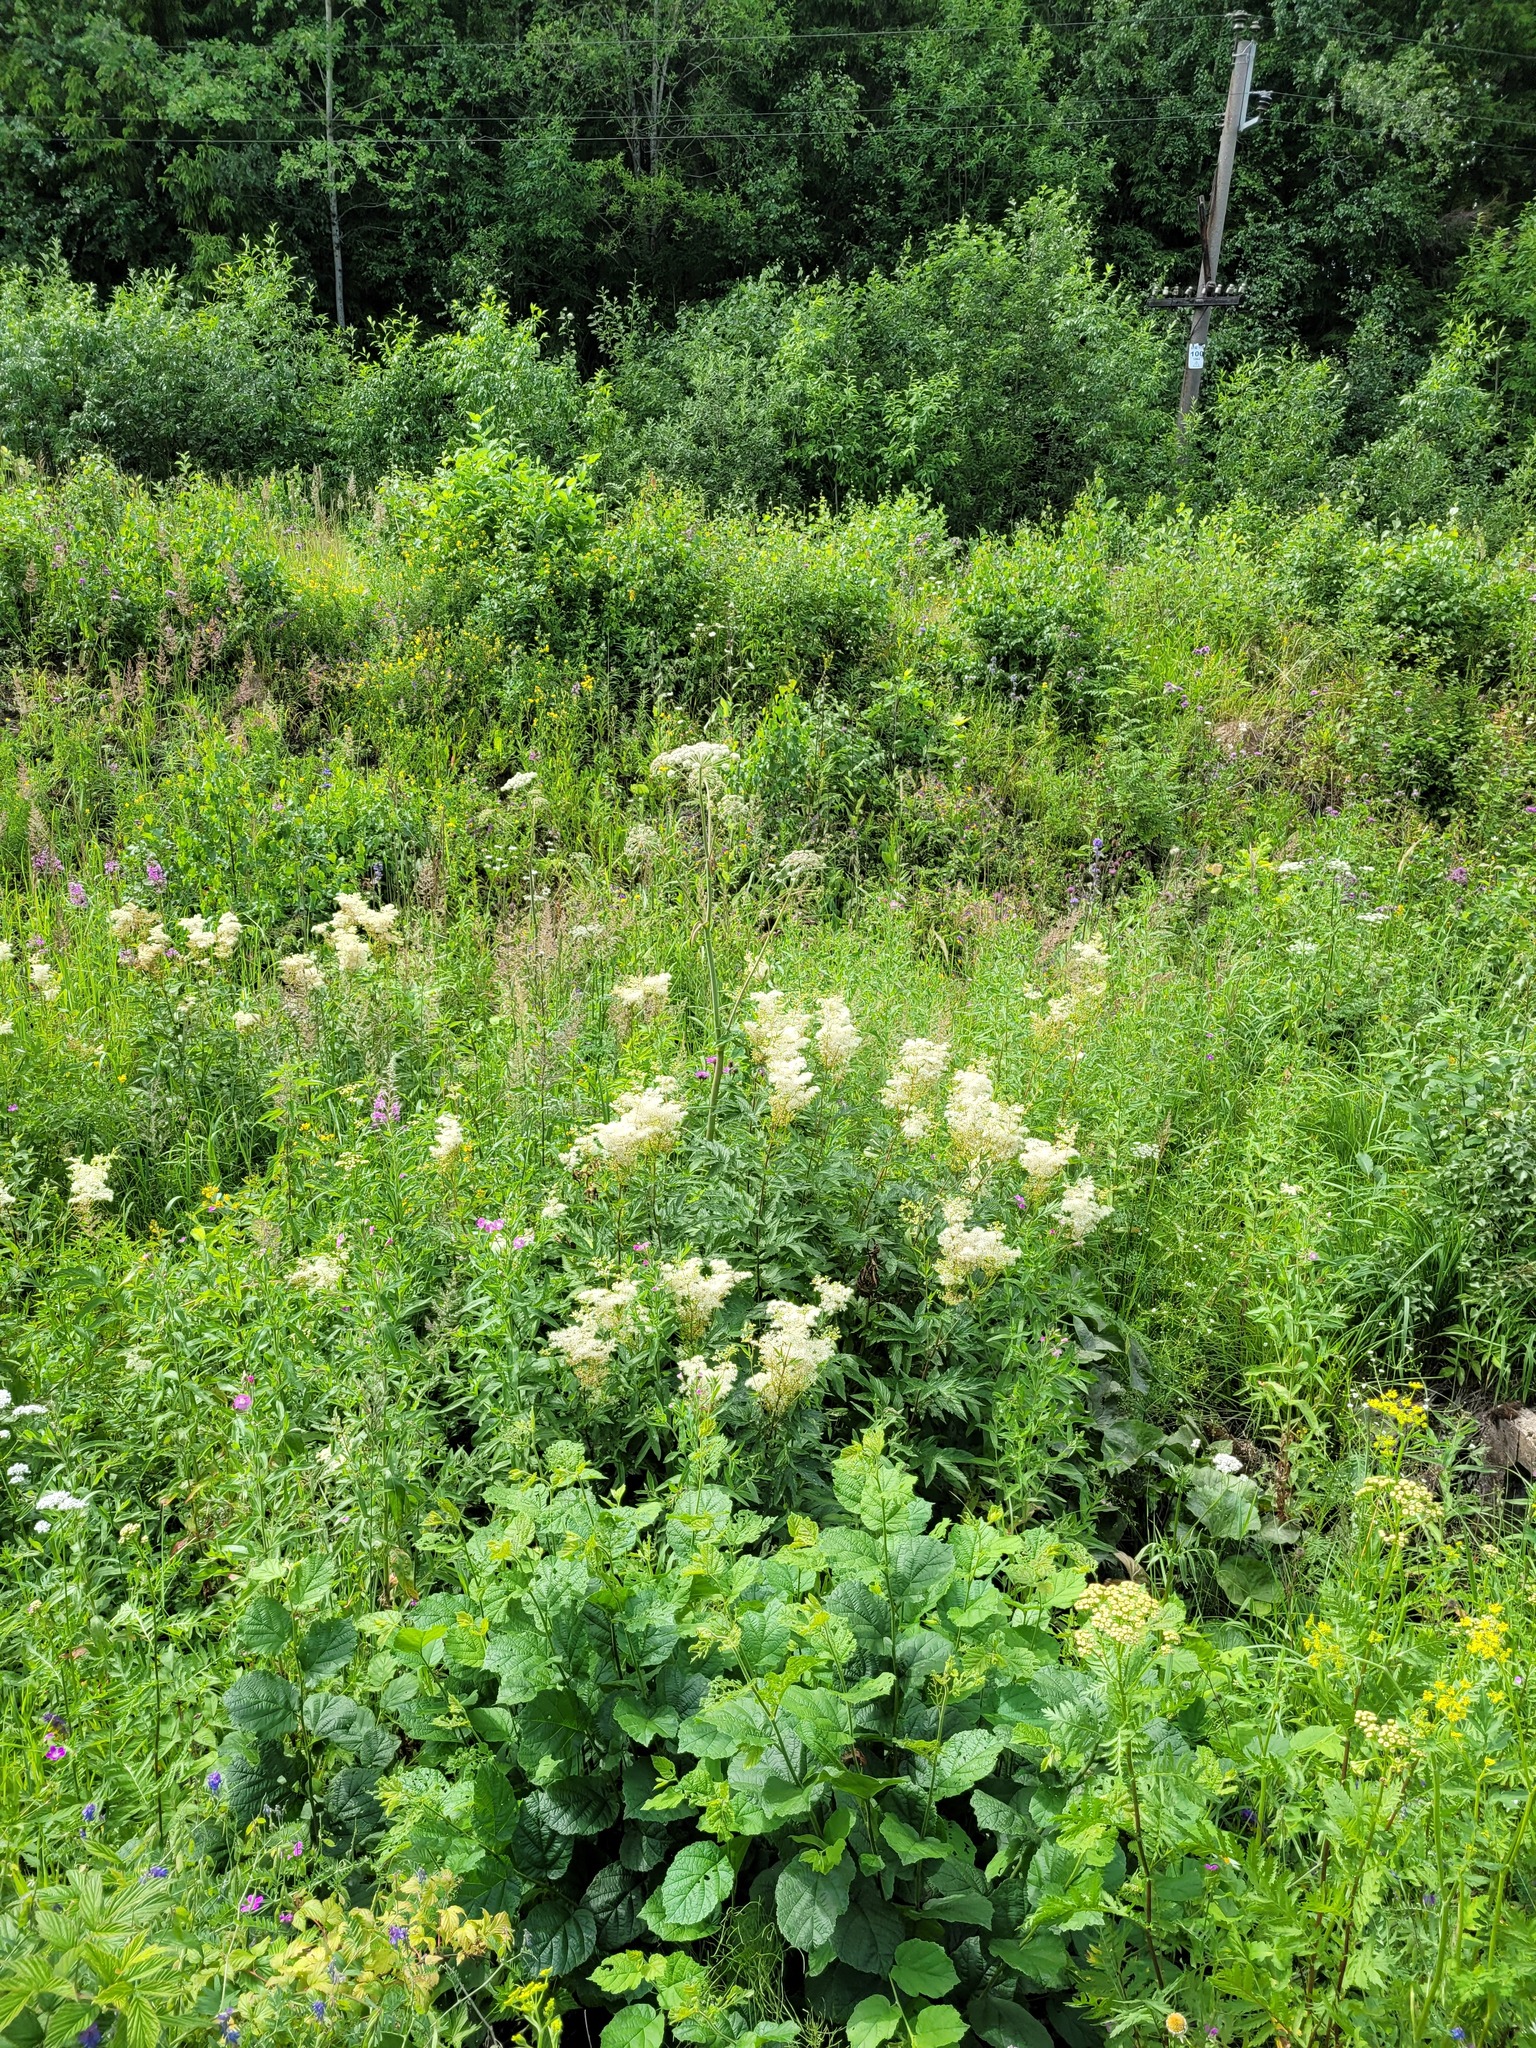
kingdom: Plantae
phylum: Tracheophyta
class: Magnoliopsida
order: Rosales
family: Rosaceae
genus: Filipendula
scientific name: Filipendula ulmaria
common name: Meadowsweet
